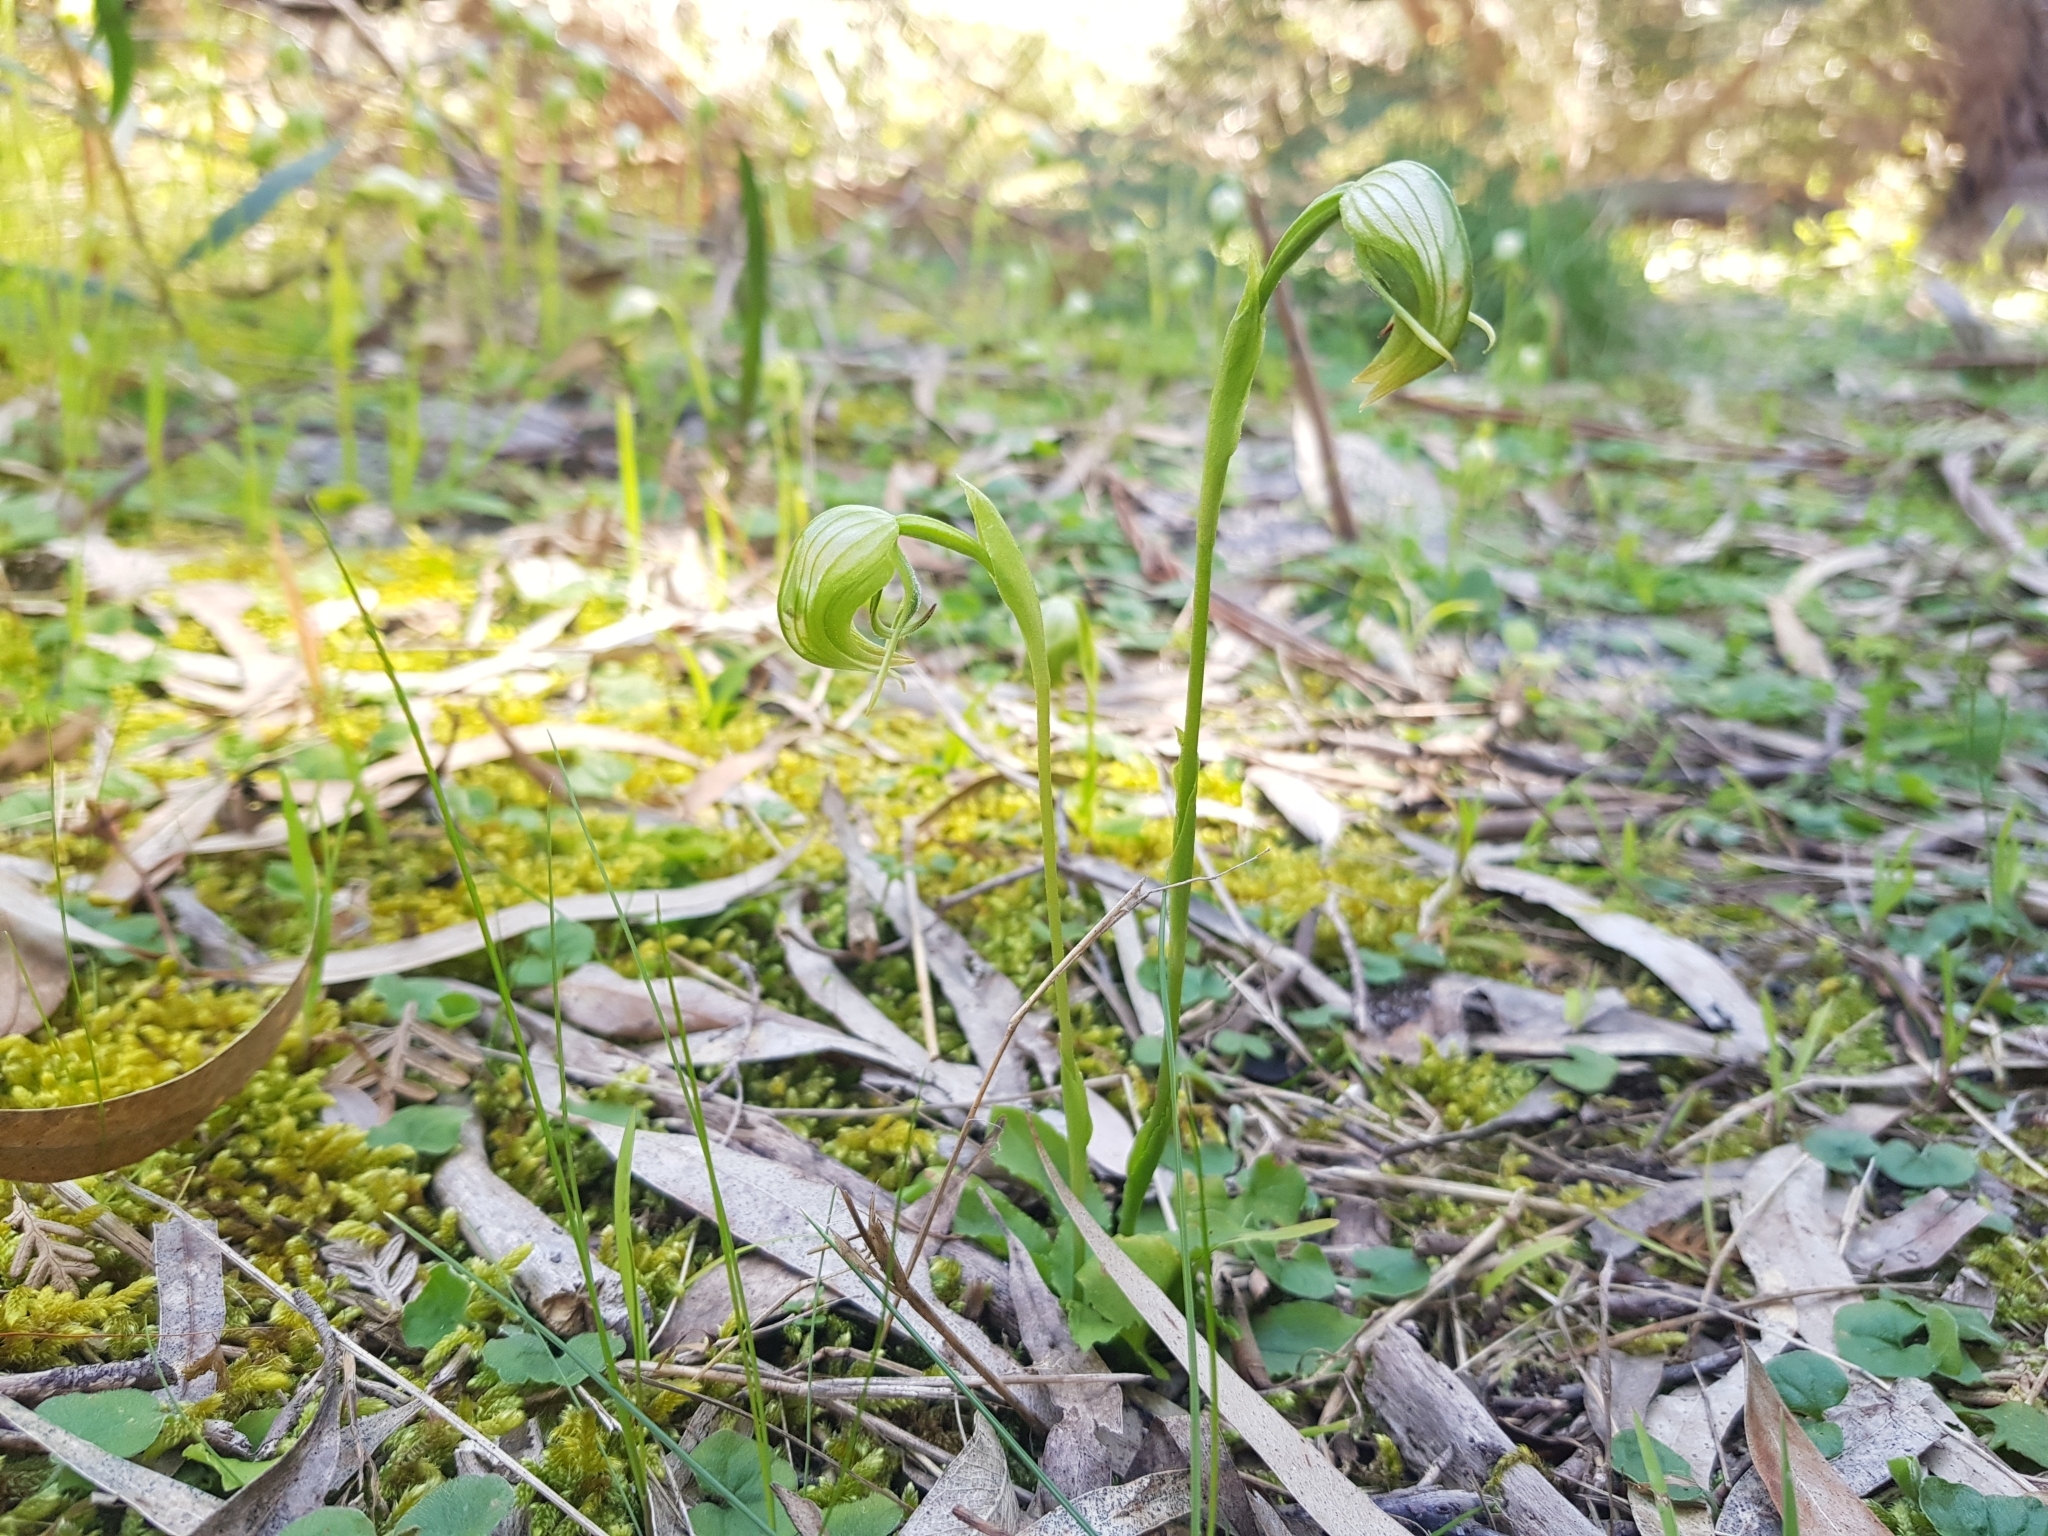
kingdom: Plantae
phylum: Tracheophyta
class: Liliopsida
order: Asparagales
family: Orchidaceae
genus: Pterostylis
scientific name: Pterostylis nutans
